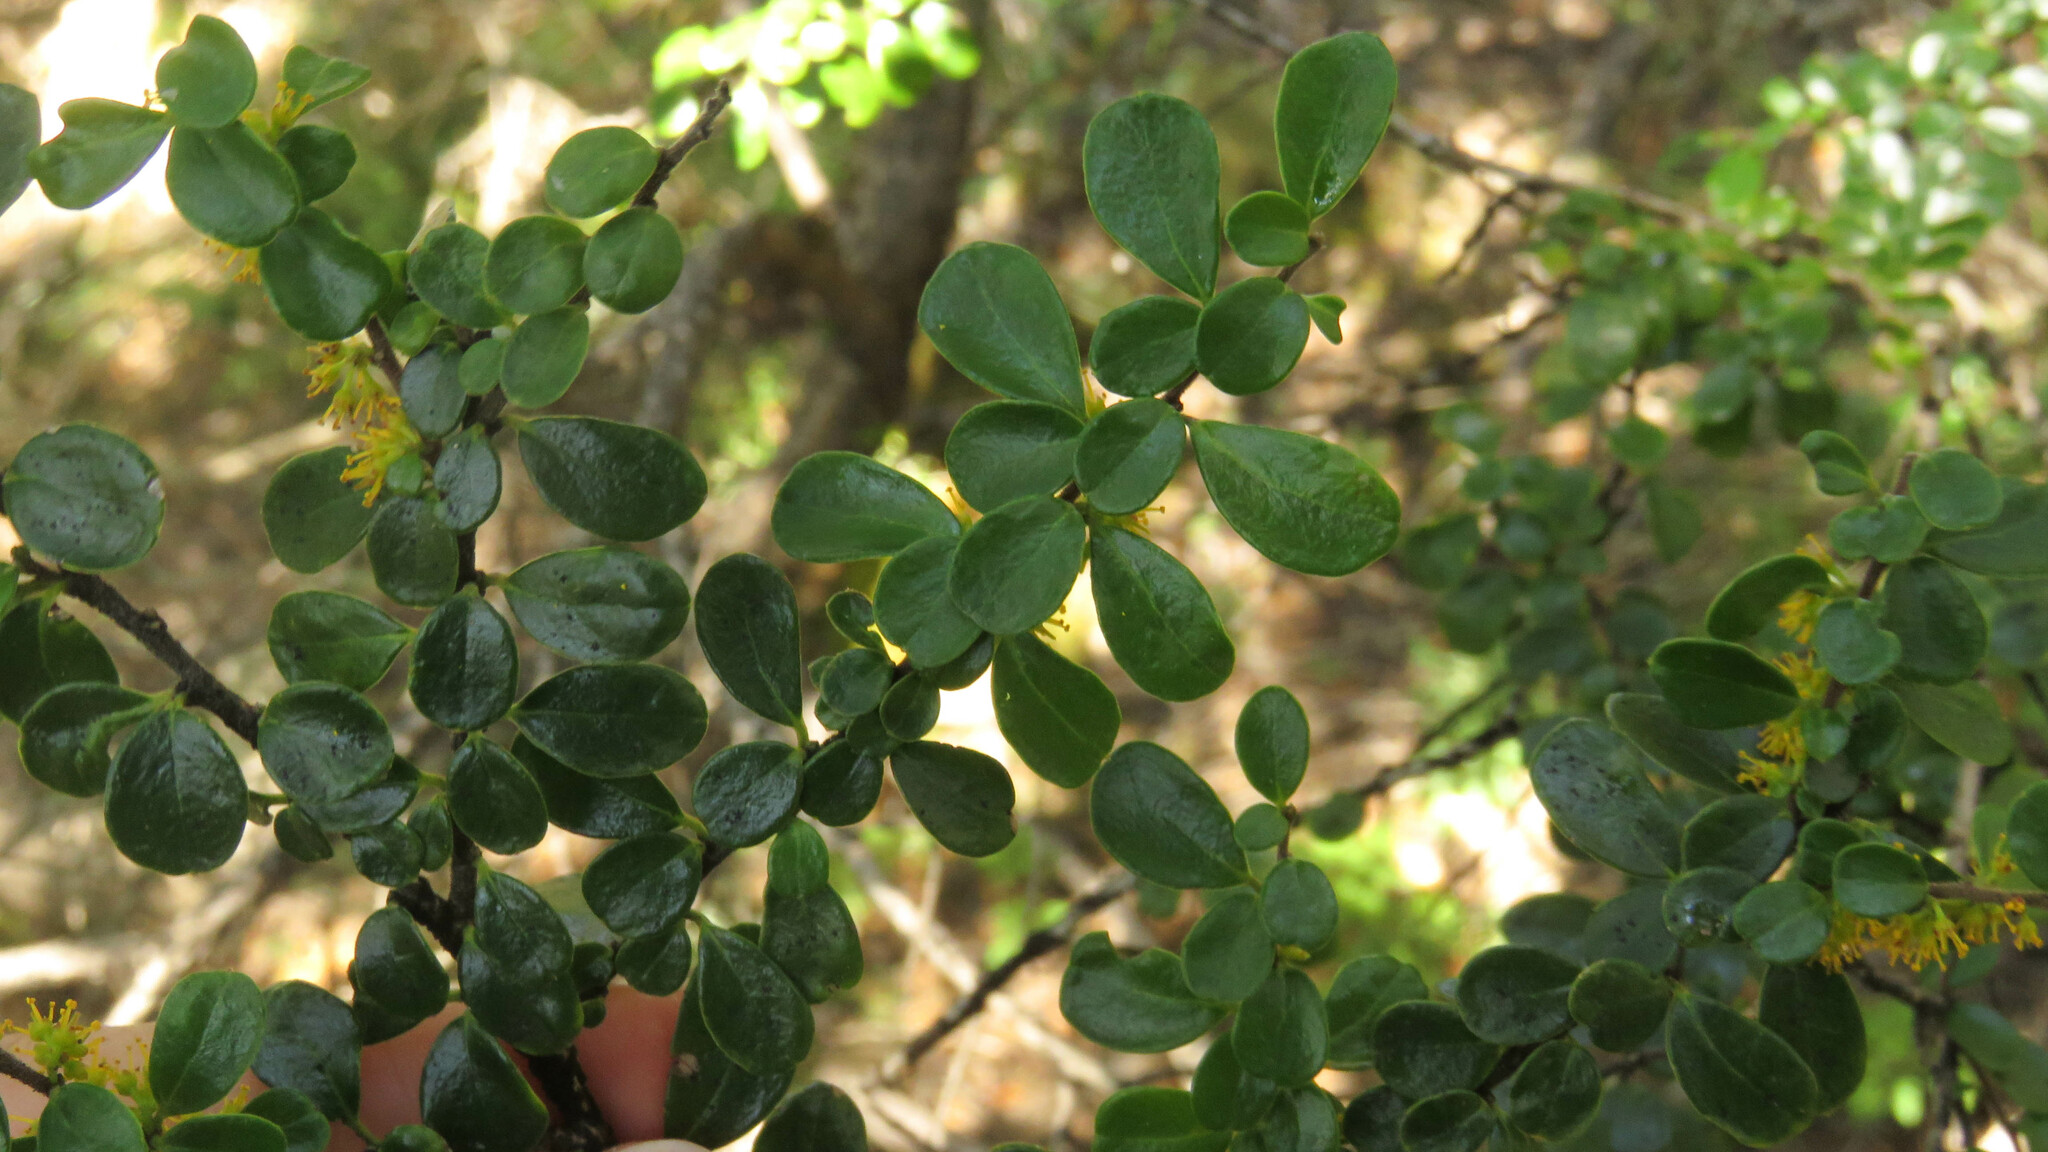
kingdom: Plantae
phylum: Tracheophyta
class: Magnoliopsida
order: Malpighiales
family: Salicaceae
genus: Azara
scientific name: Azara microphylla
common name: Box-leaf azara
